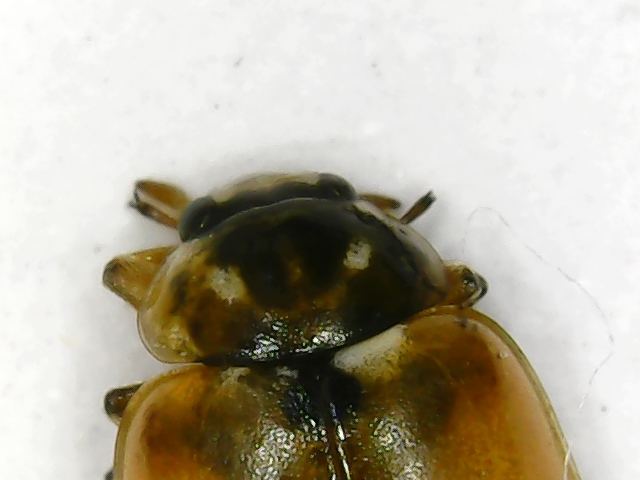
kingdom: Animalia
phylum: Arthropoda
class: Insecta
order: Coleoptera
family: Coccinellidae
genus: Hippodamia
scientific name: Hippodamia variegata
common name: Ladybird beetle
